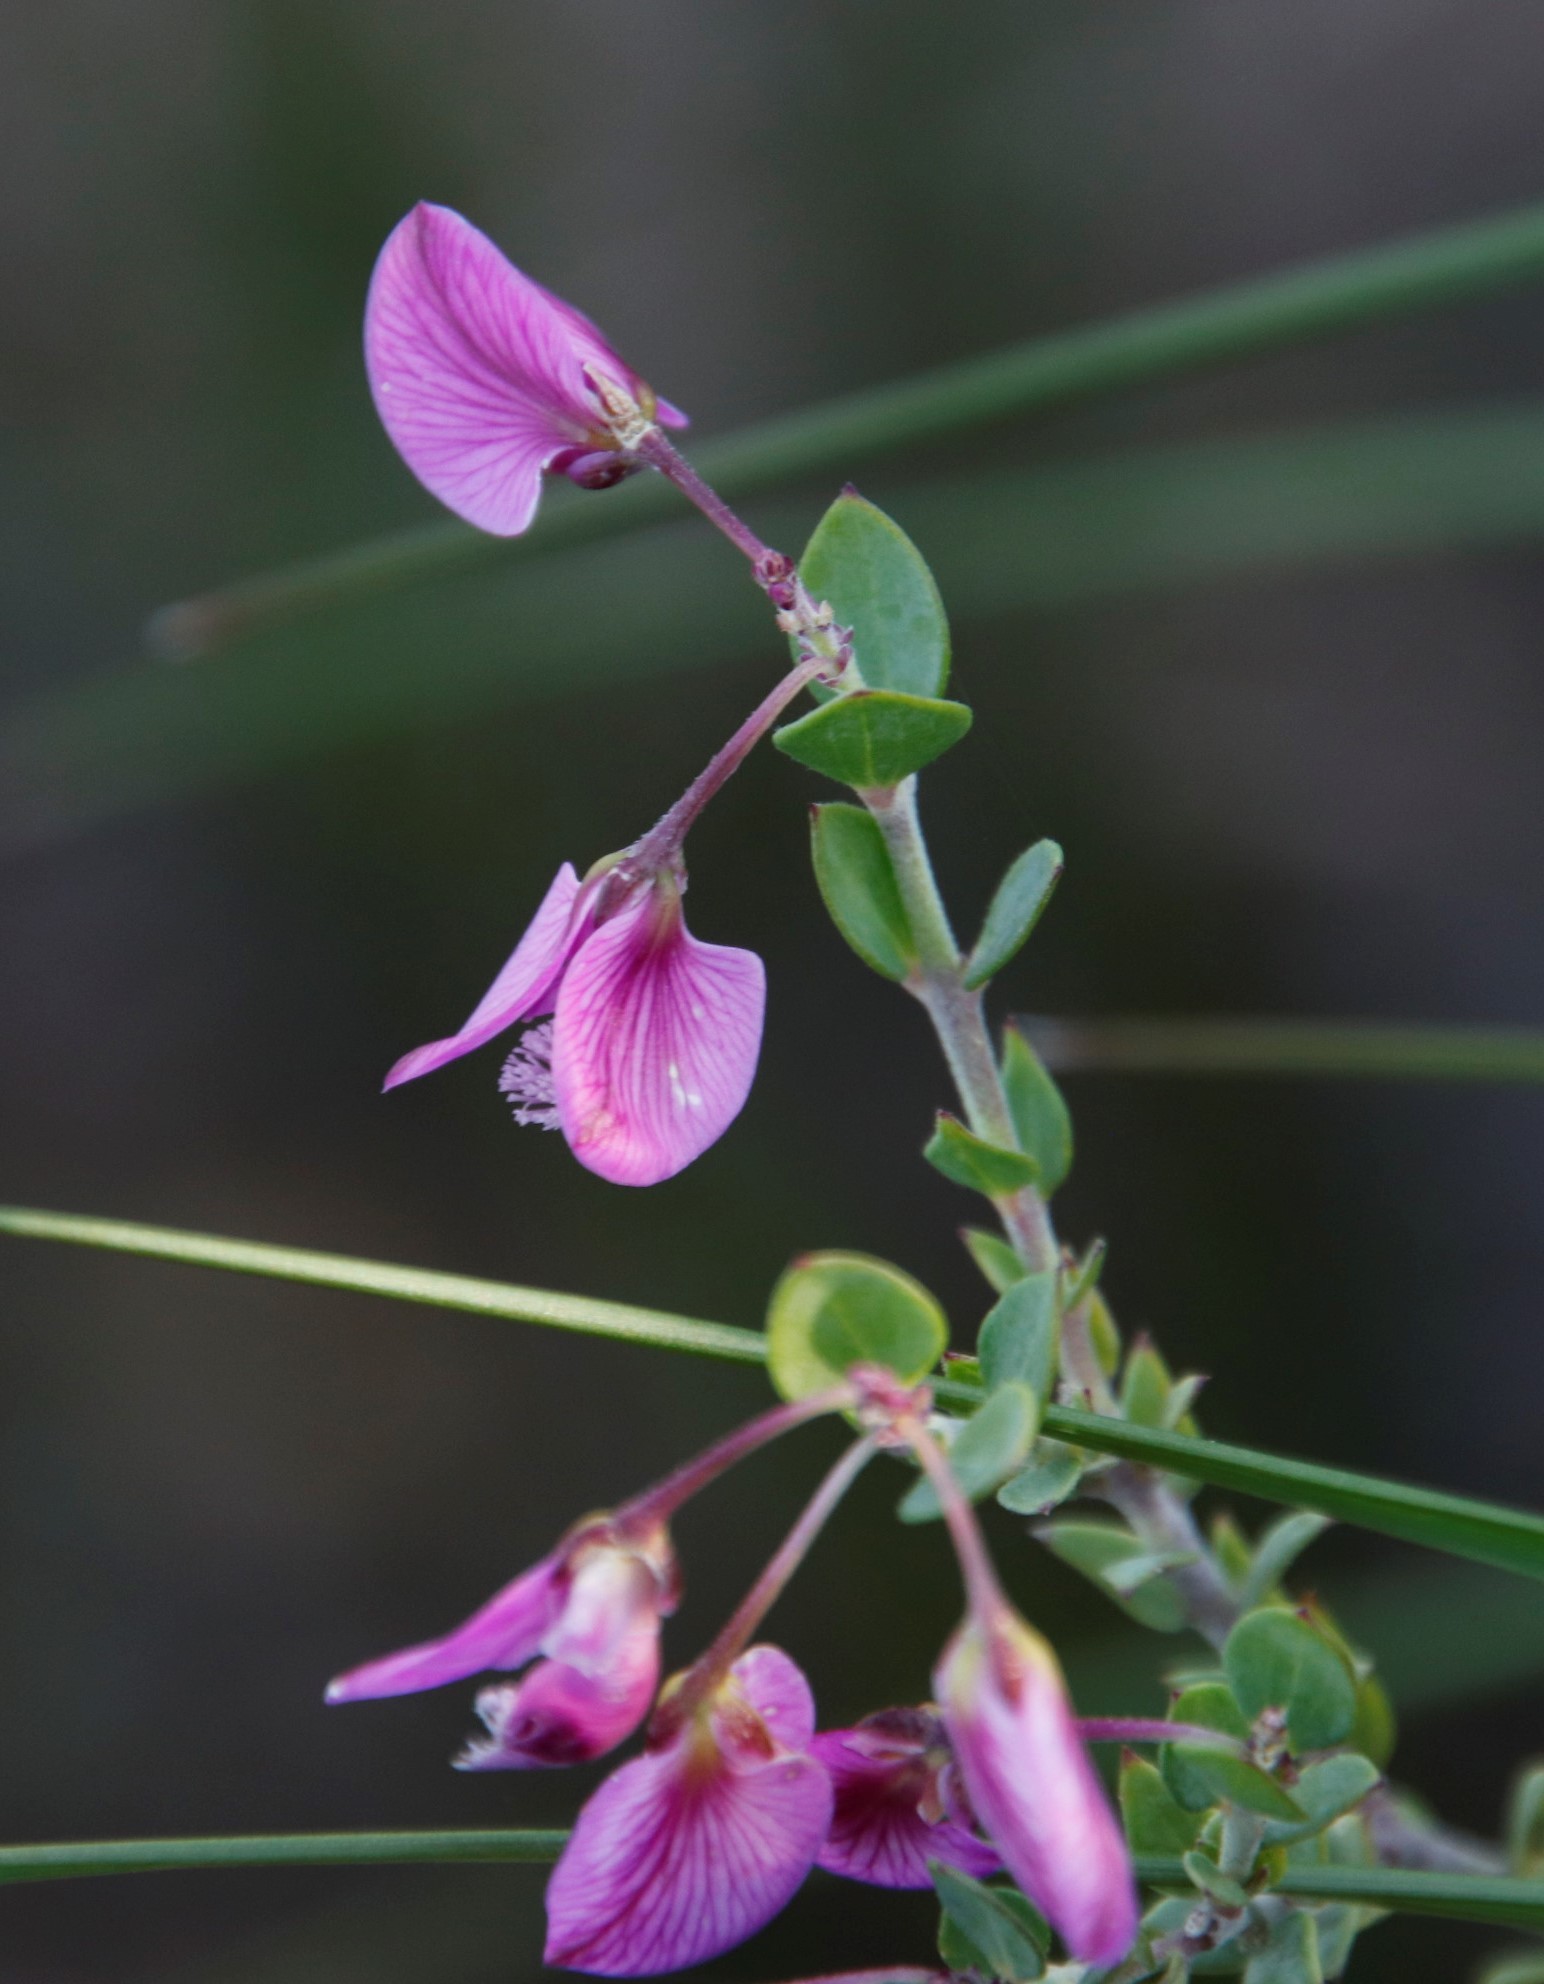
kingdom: Plantae
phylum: Tracheophyta
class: Magnoliopsida
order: Fabales
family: Polygalaceae
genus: Polygala
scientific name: Polygala fruticosa
